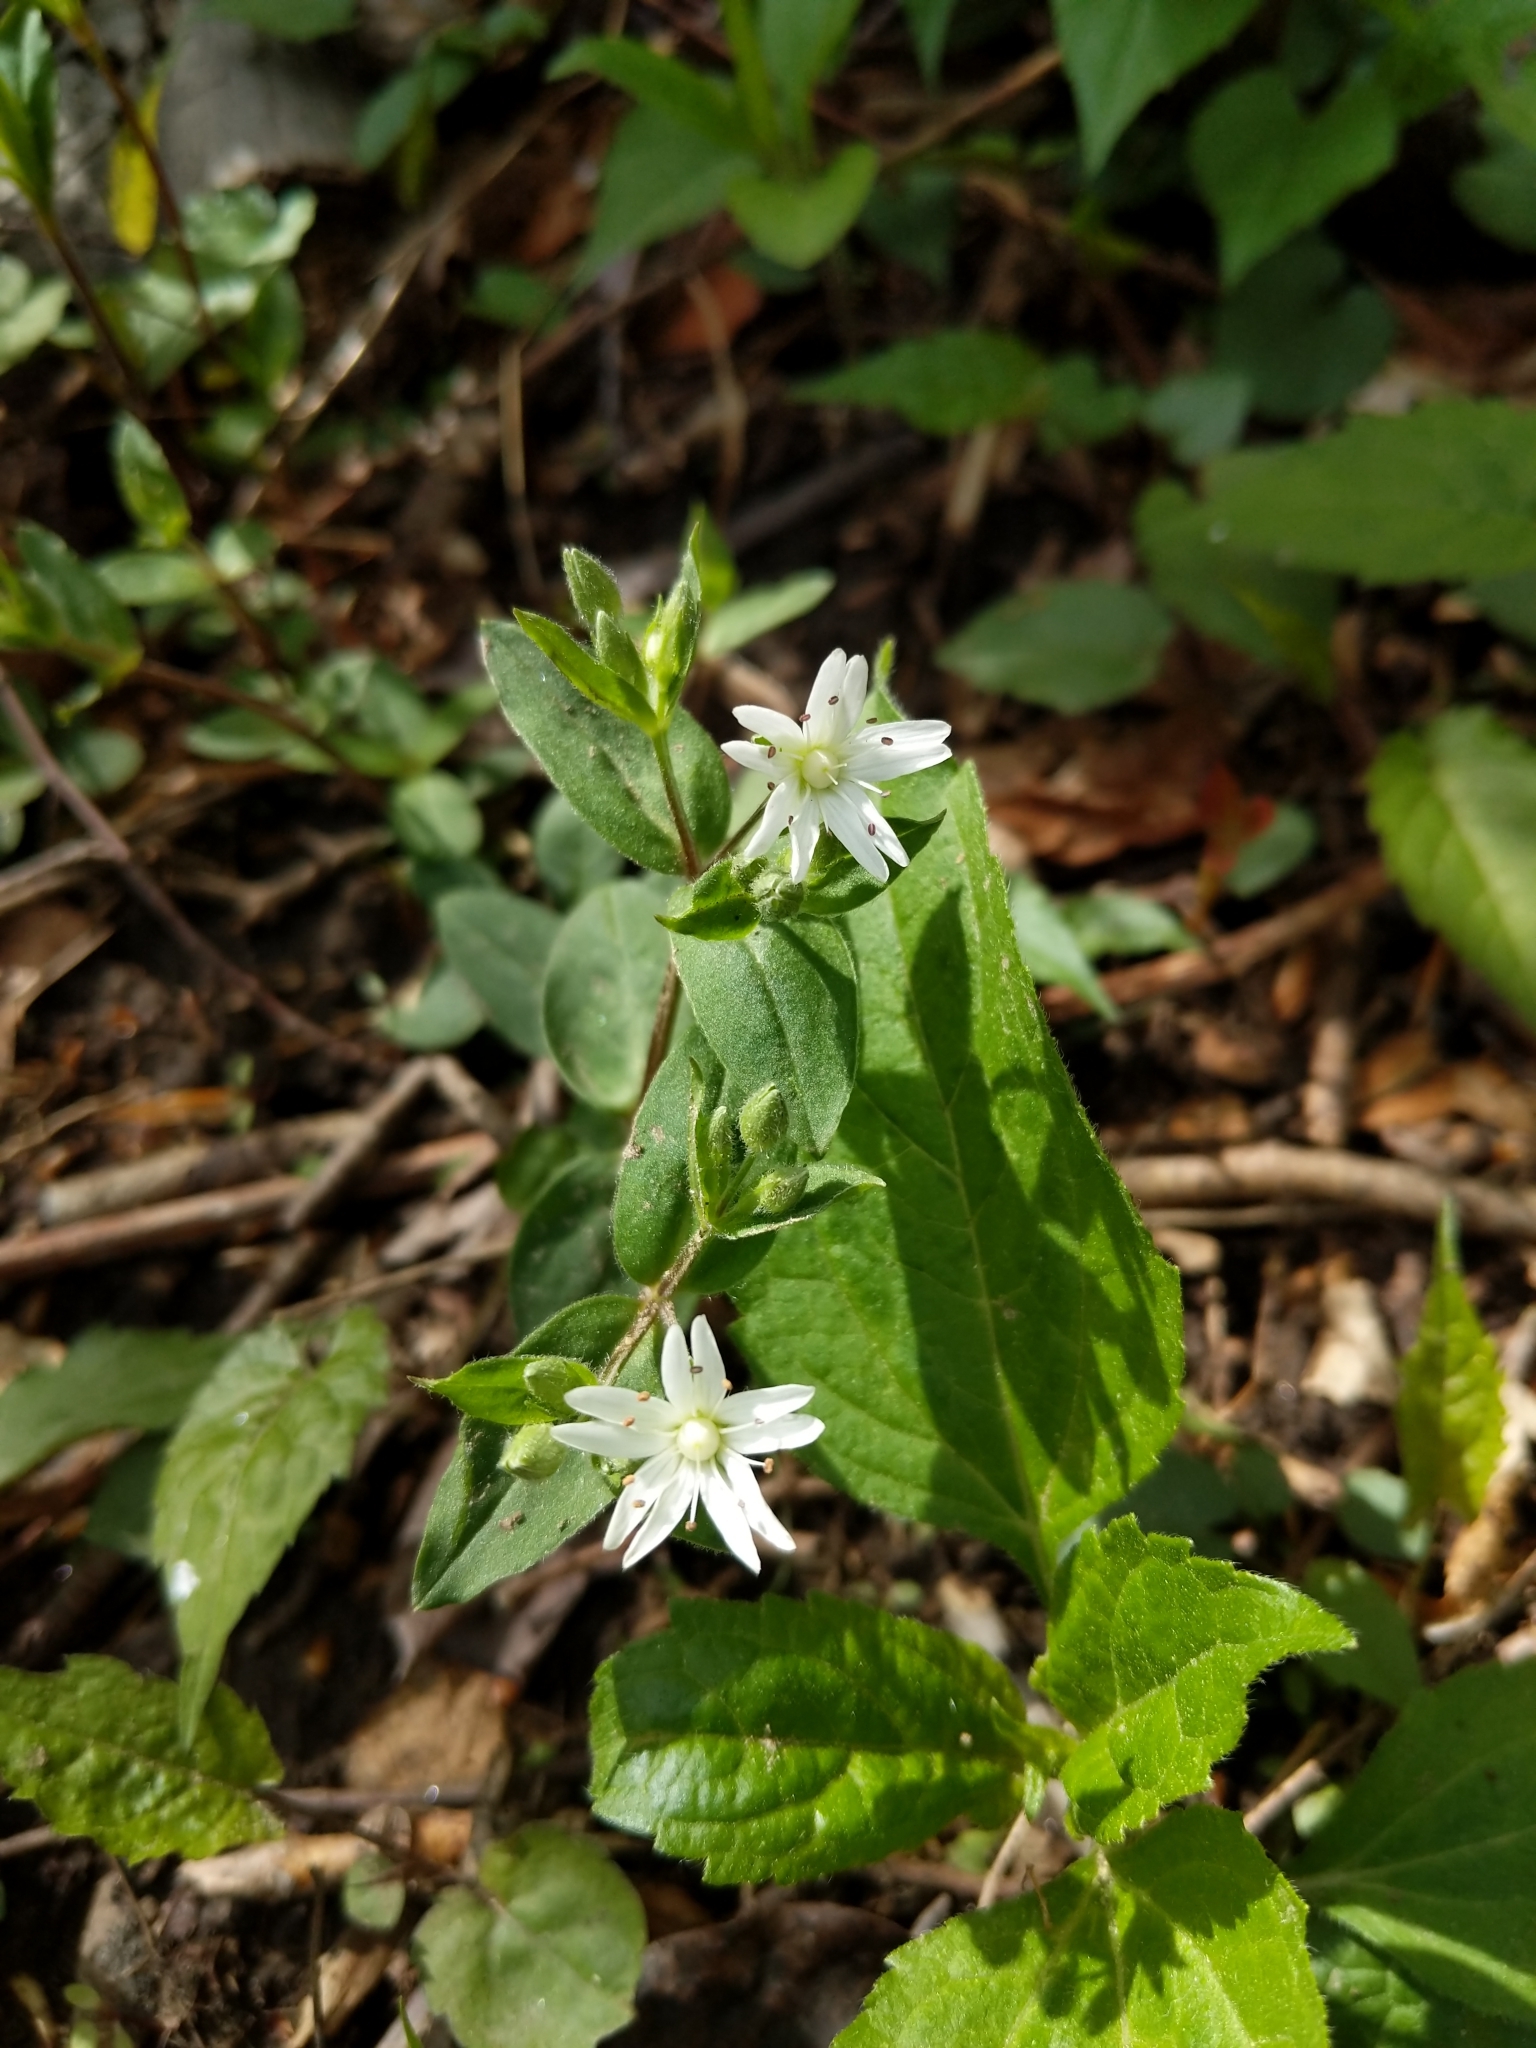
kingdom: Plantae
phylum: Tracheophyta
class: Magnoliopsida
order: Caryophyllales
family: Caryophyllaceae
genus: Stellaria
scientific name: Stellaria pubera
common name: Star chickweed
